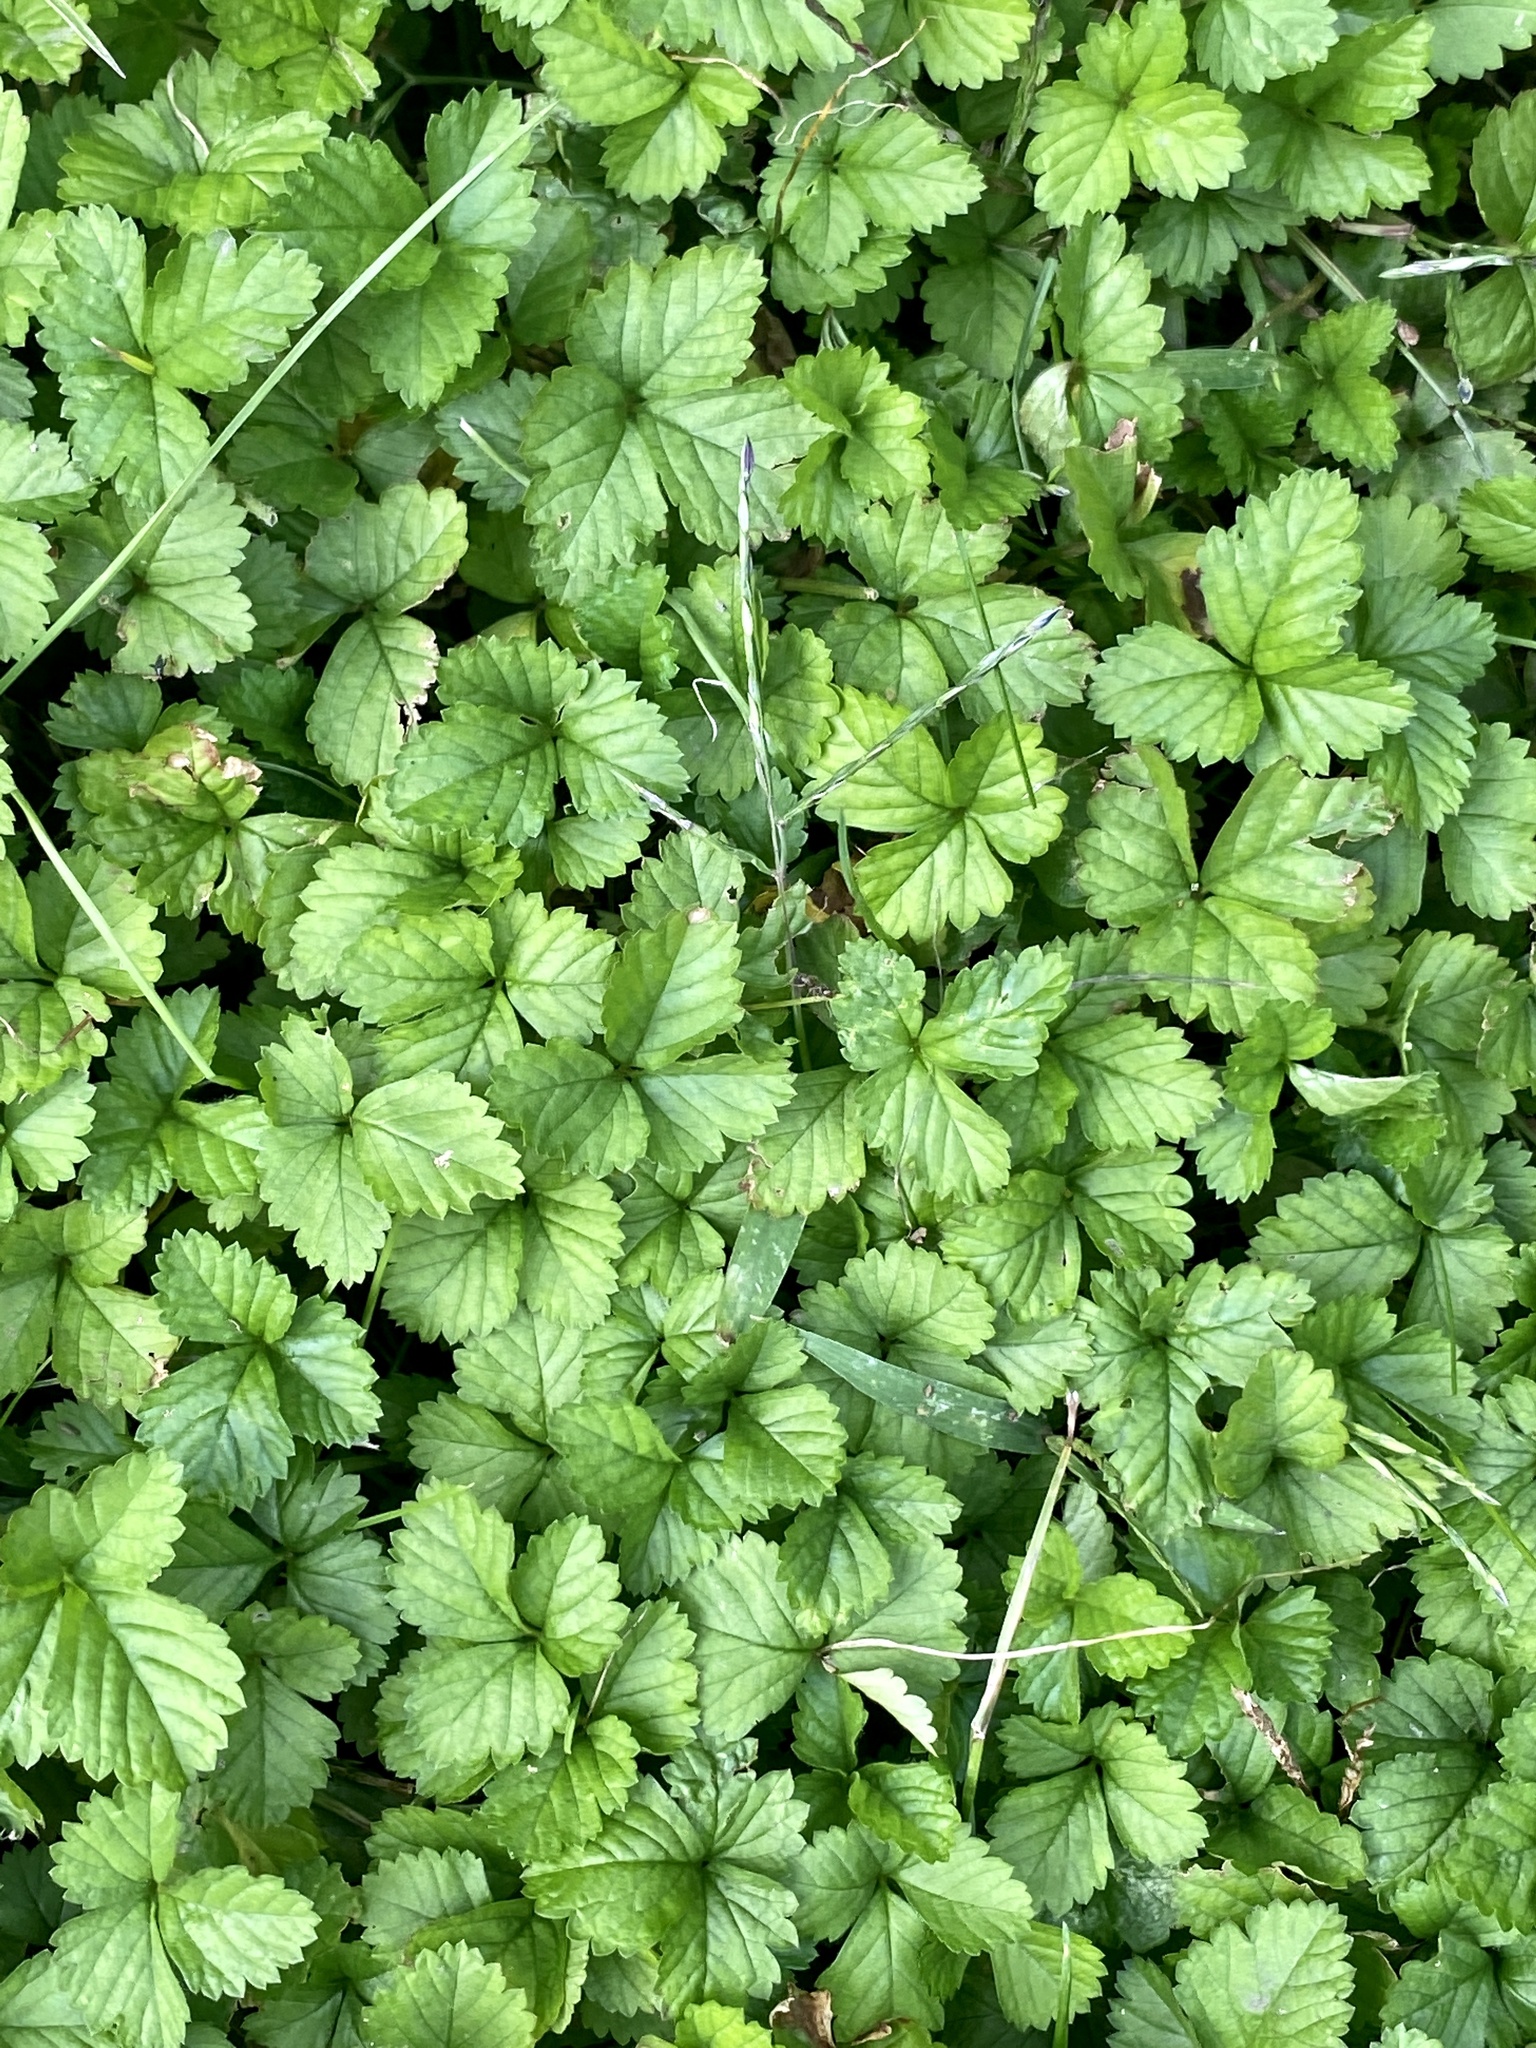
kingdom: Plantae
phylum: Tracheophyta
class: Magnoliopsida
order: Rosales
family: Rosaceae
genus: Potentilla
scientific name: Potentilla indica
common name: Yellow-flowered strawberry
